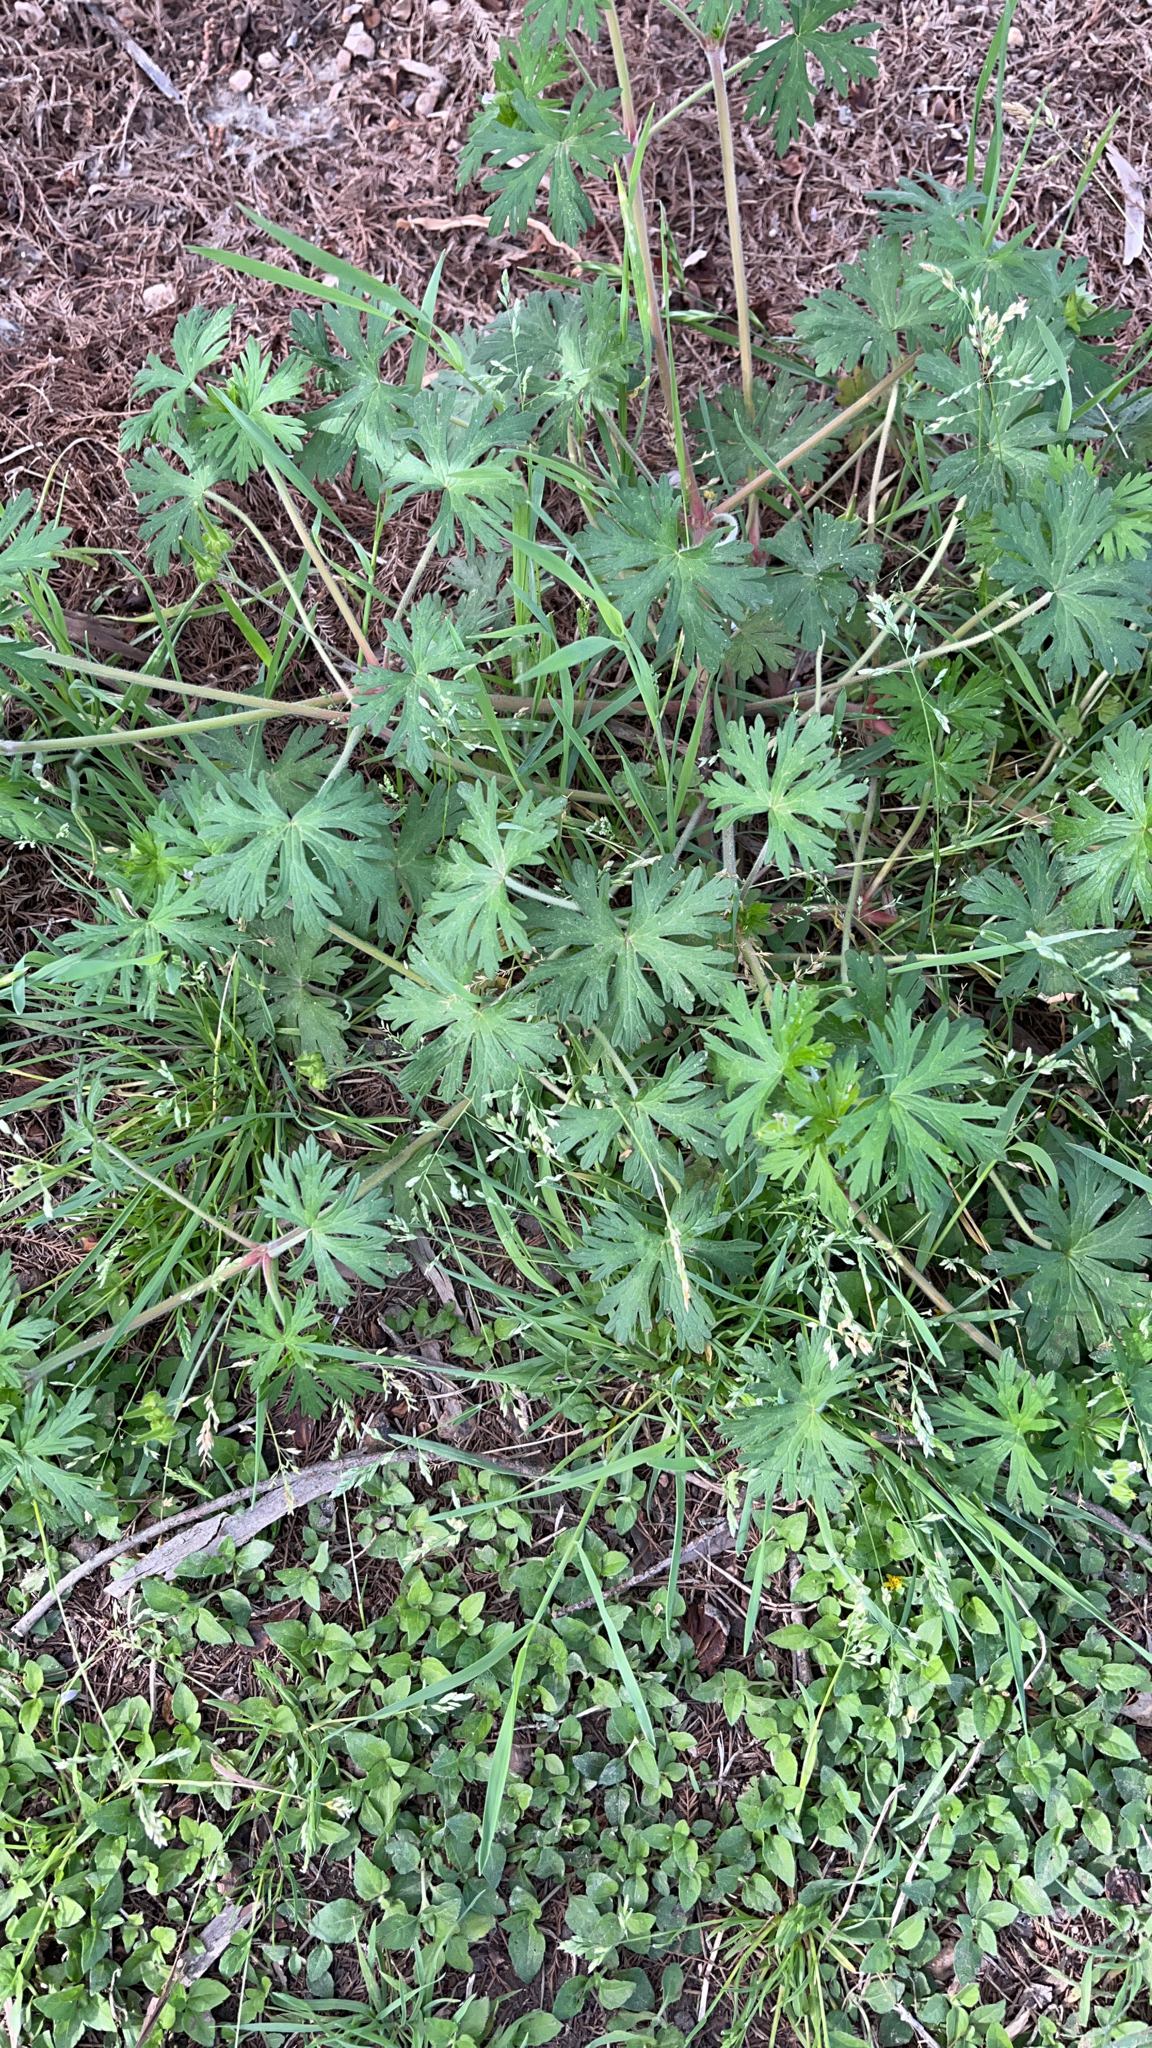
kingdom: Plantae
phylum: Tracheophyta
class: Magnoliopsida
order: Geraniales
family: Geraniaceae
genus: Geranium
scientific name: Geranium carolinianum
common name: Carolina crane's-bill
